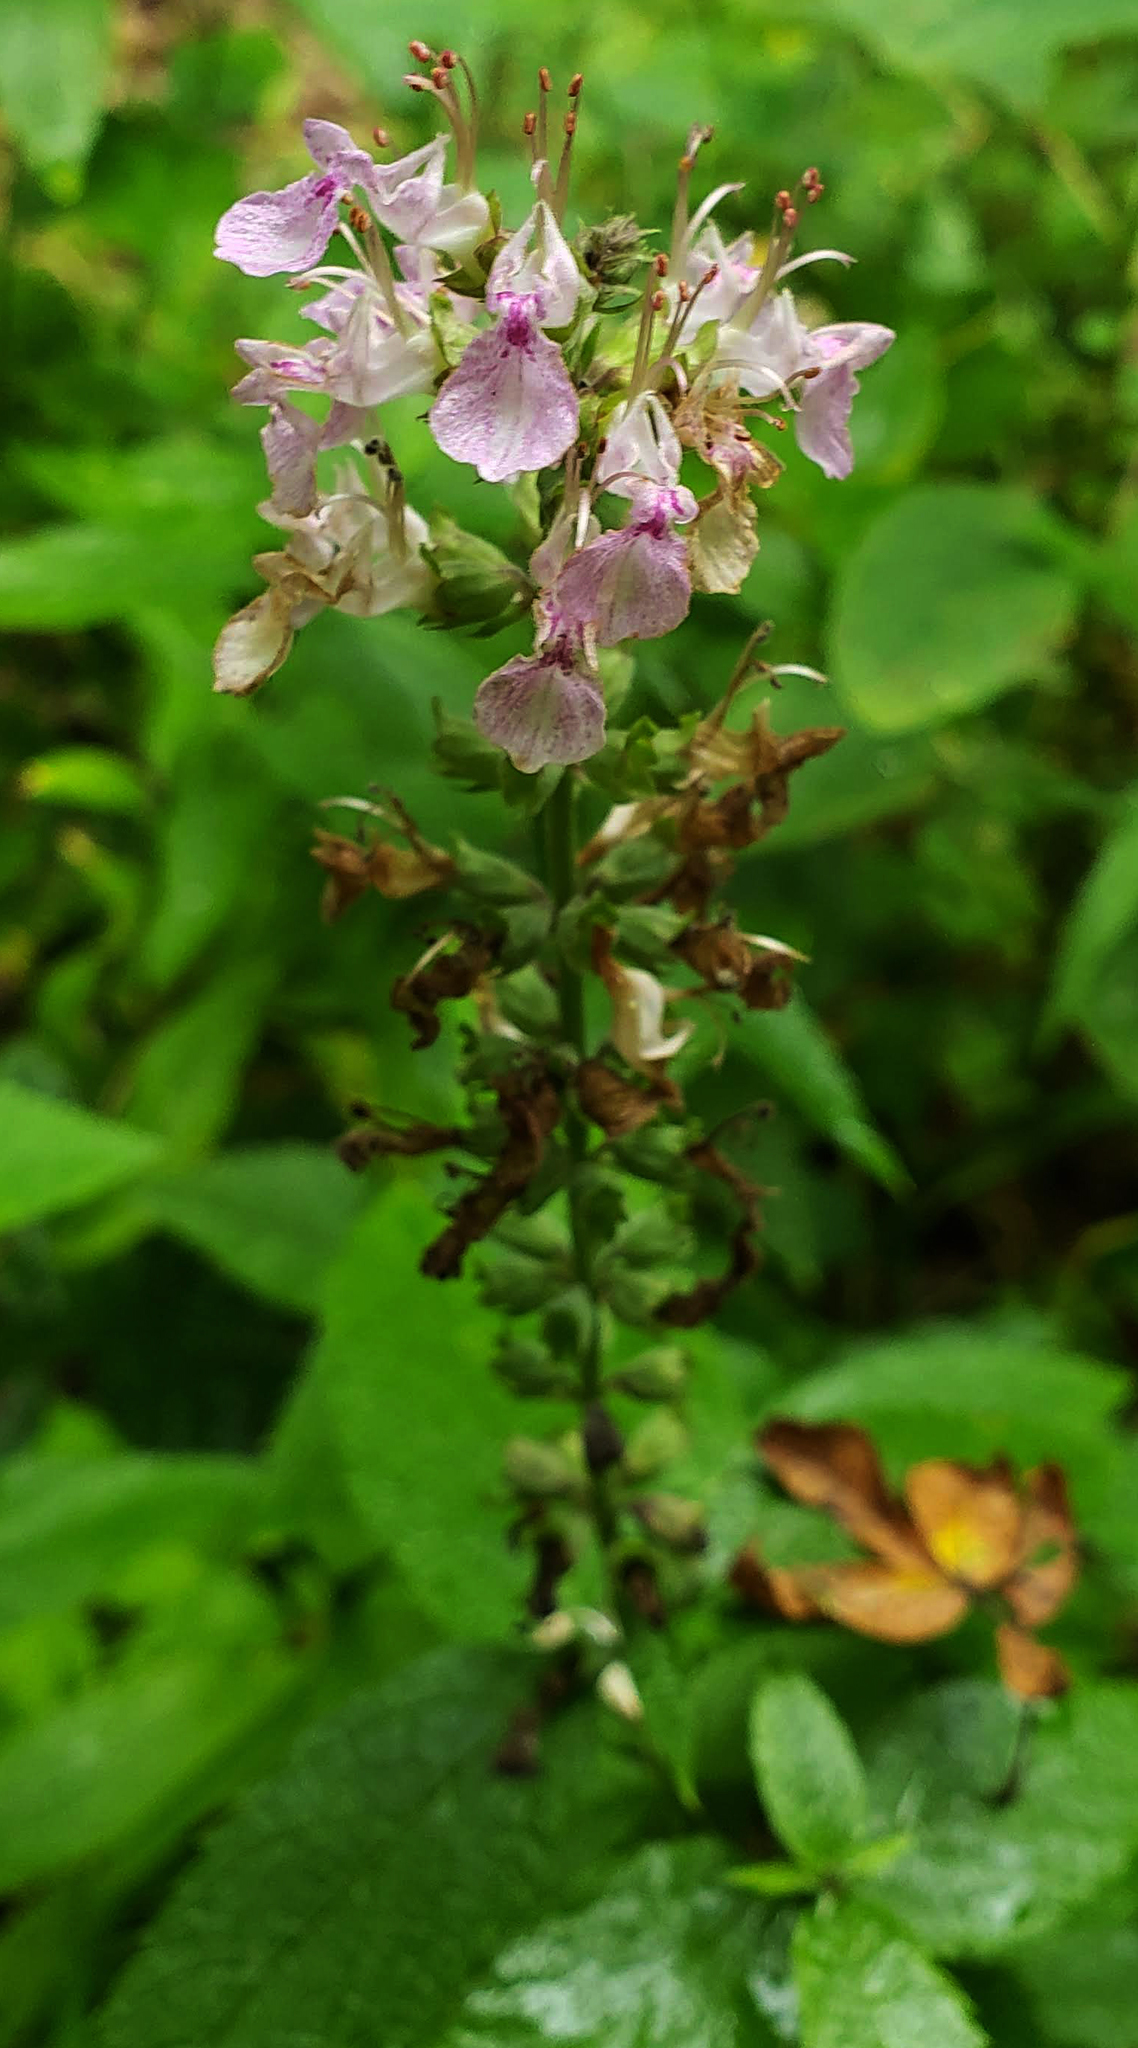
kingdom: Plantae
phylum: Tracheophyta
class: Magnoliopsida
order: Lamiales
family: Lamiaceae
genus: Teucrium
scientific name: Teucrium canadense
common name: American germander
